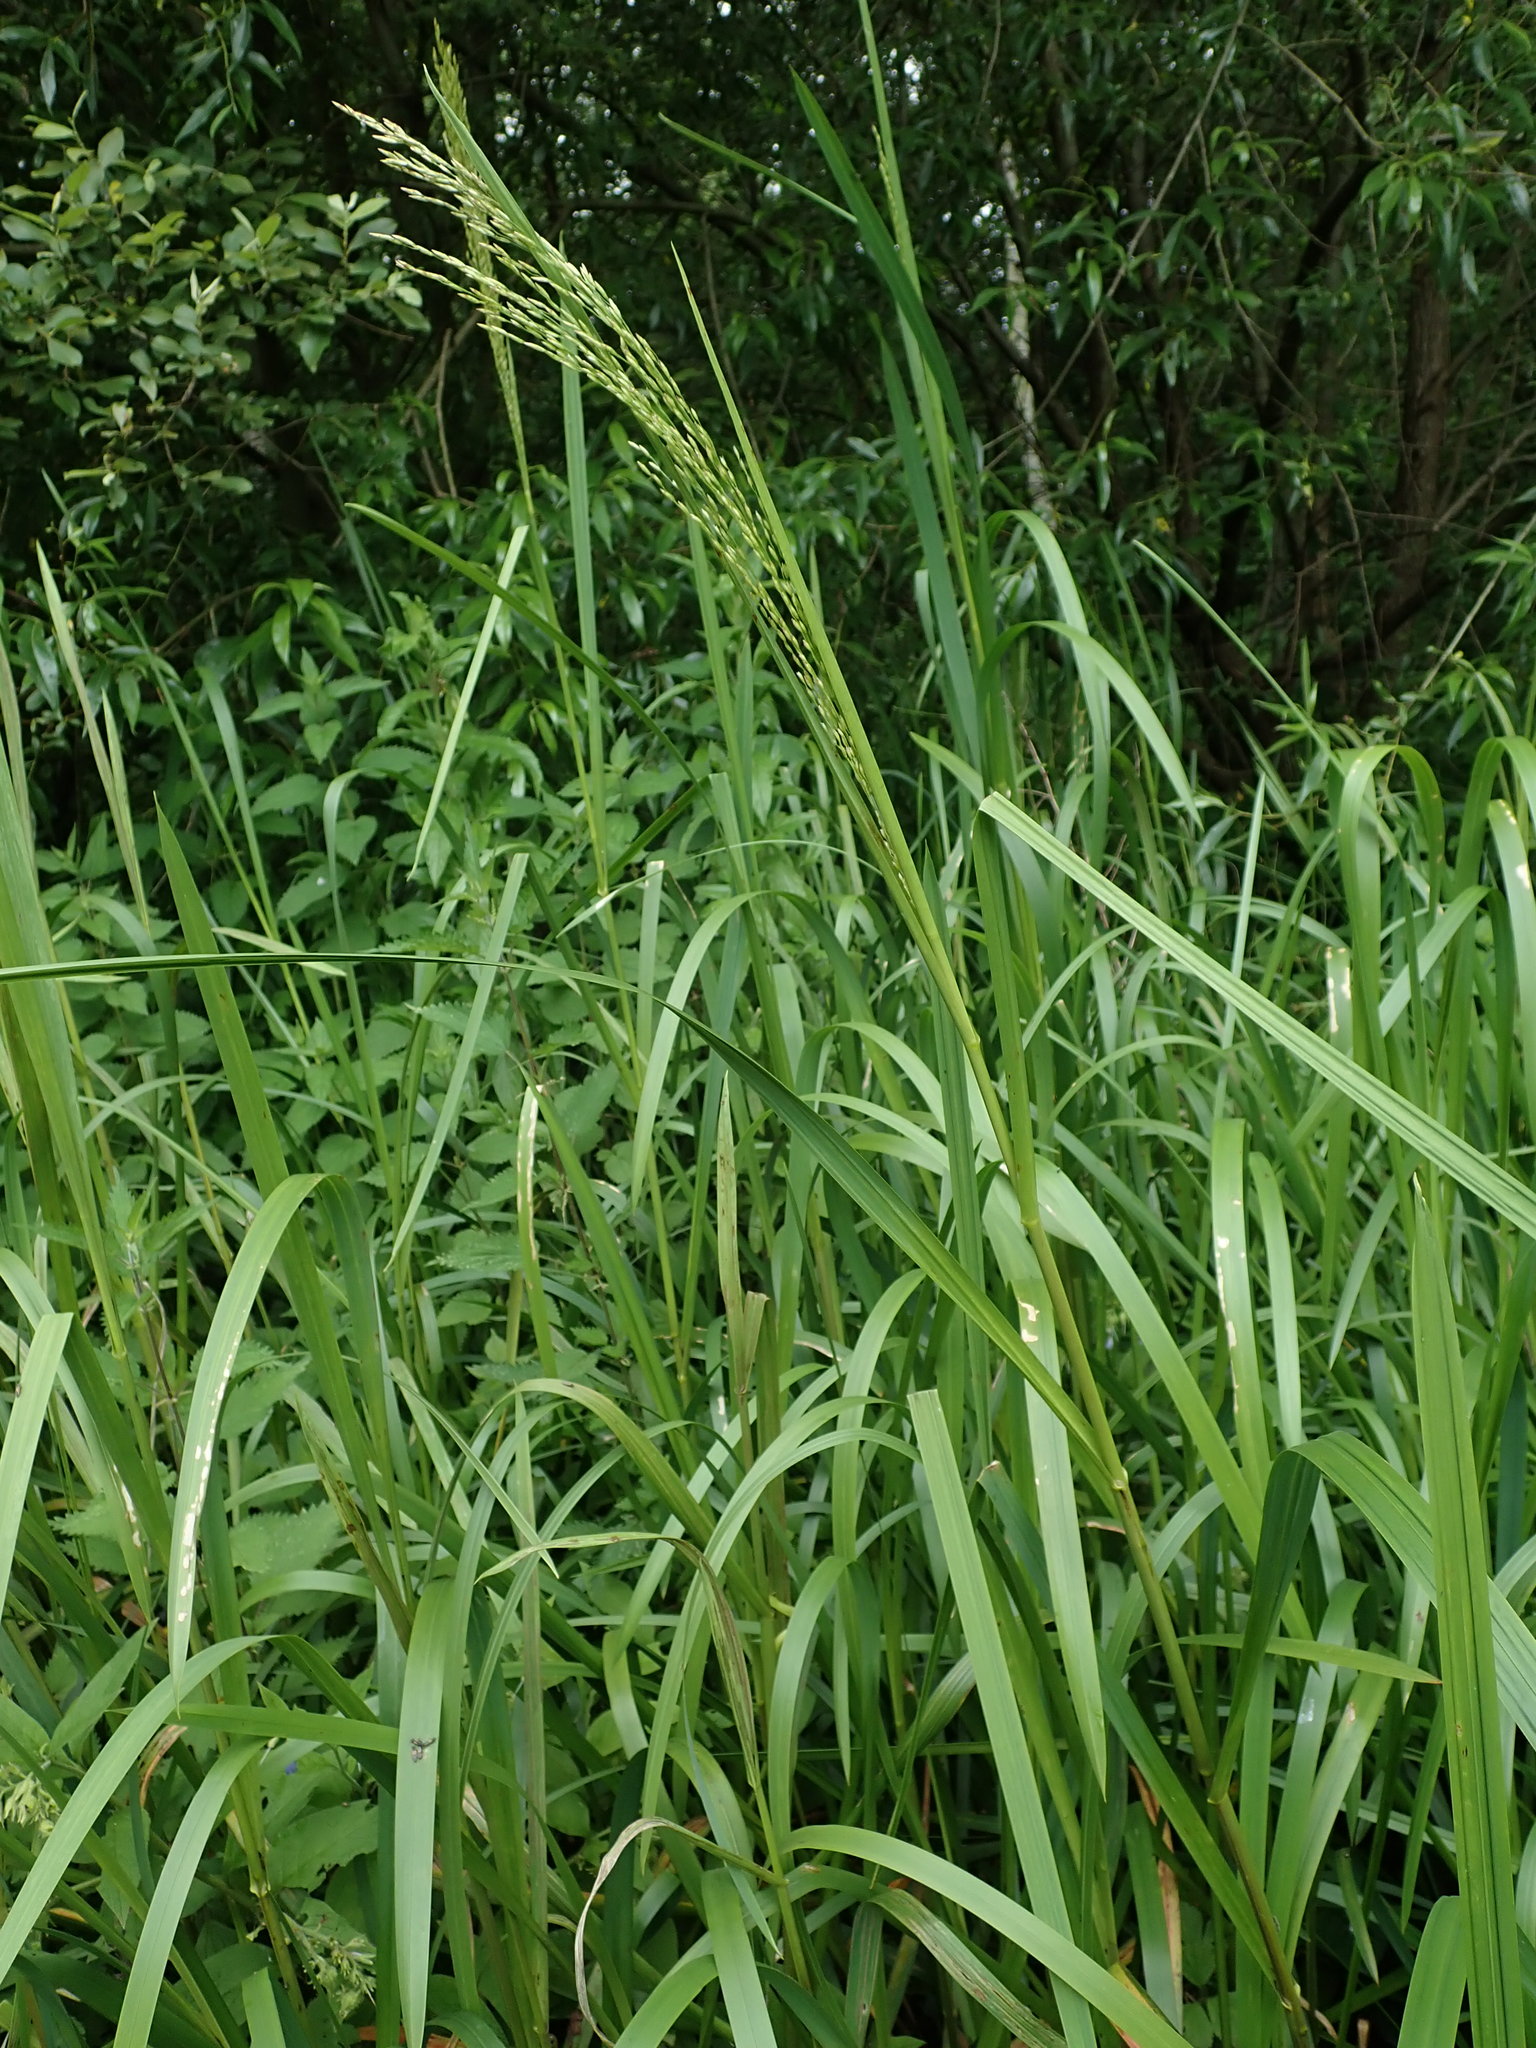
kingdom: Plantae
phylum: Tracheophyta
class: Liliopsida
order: Poales
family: Poaceae
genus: Glyceria
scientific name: Glyceria maxima
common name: Reed mannagrass
